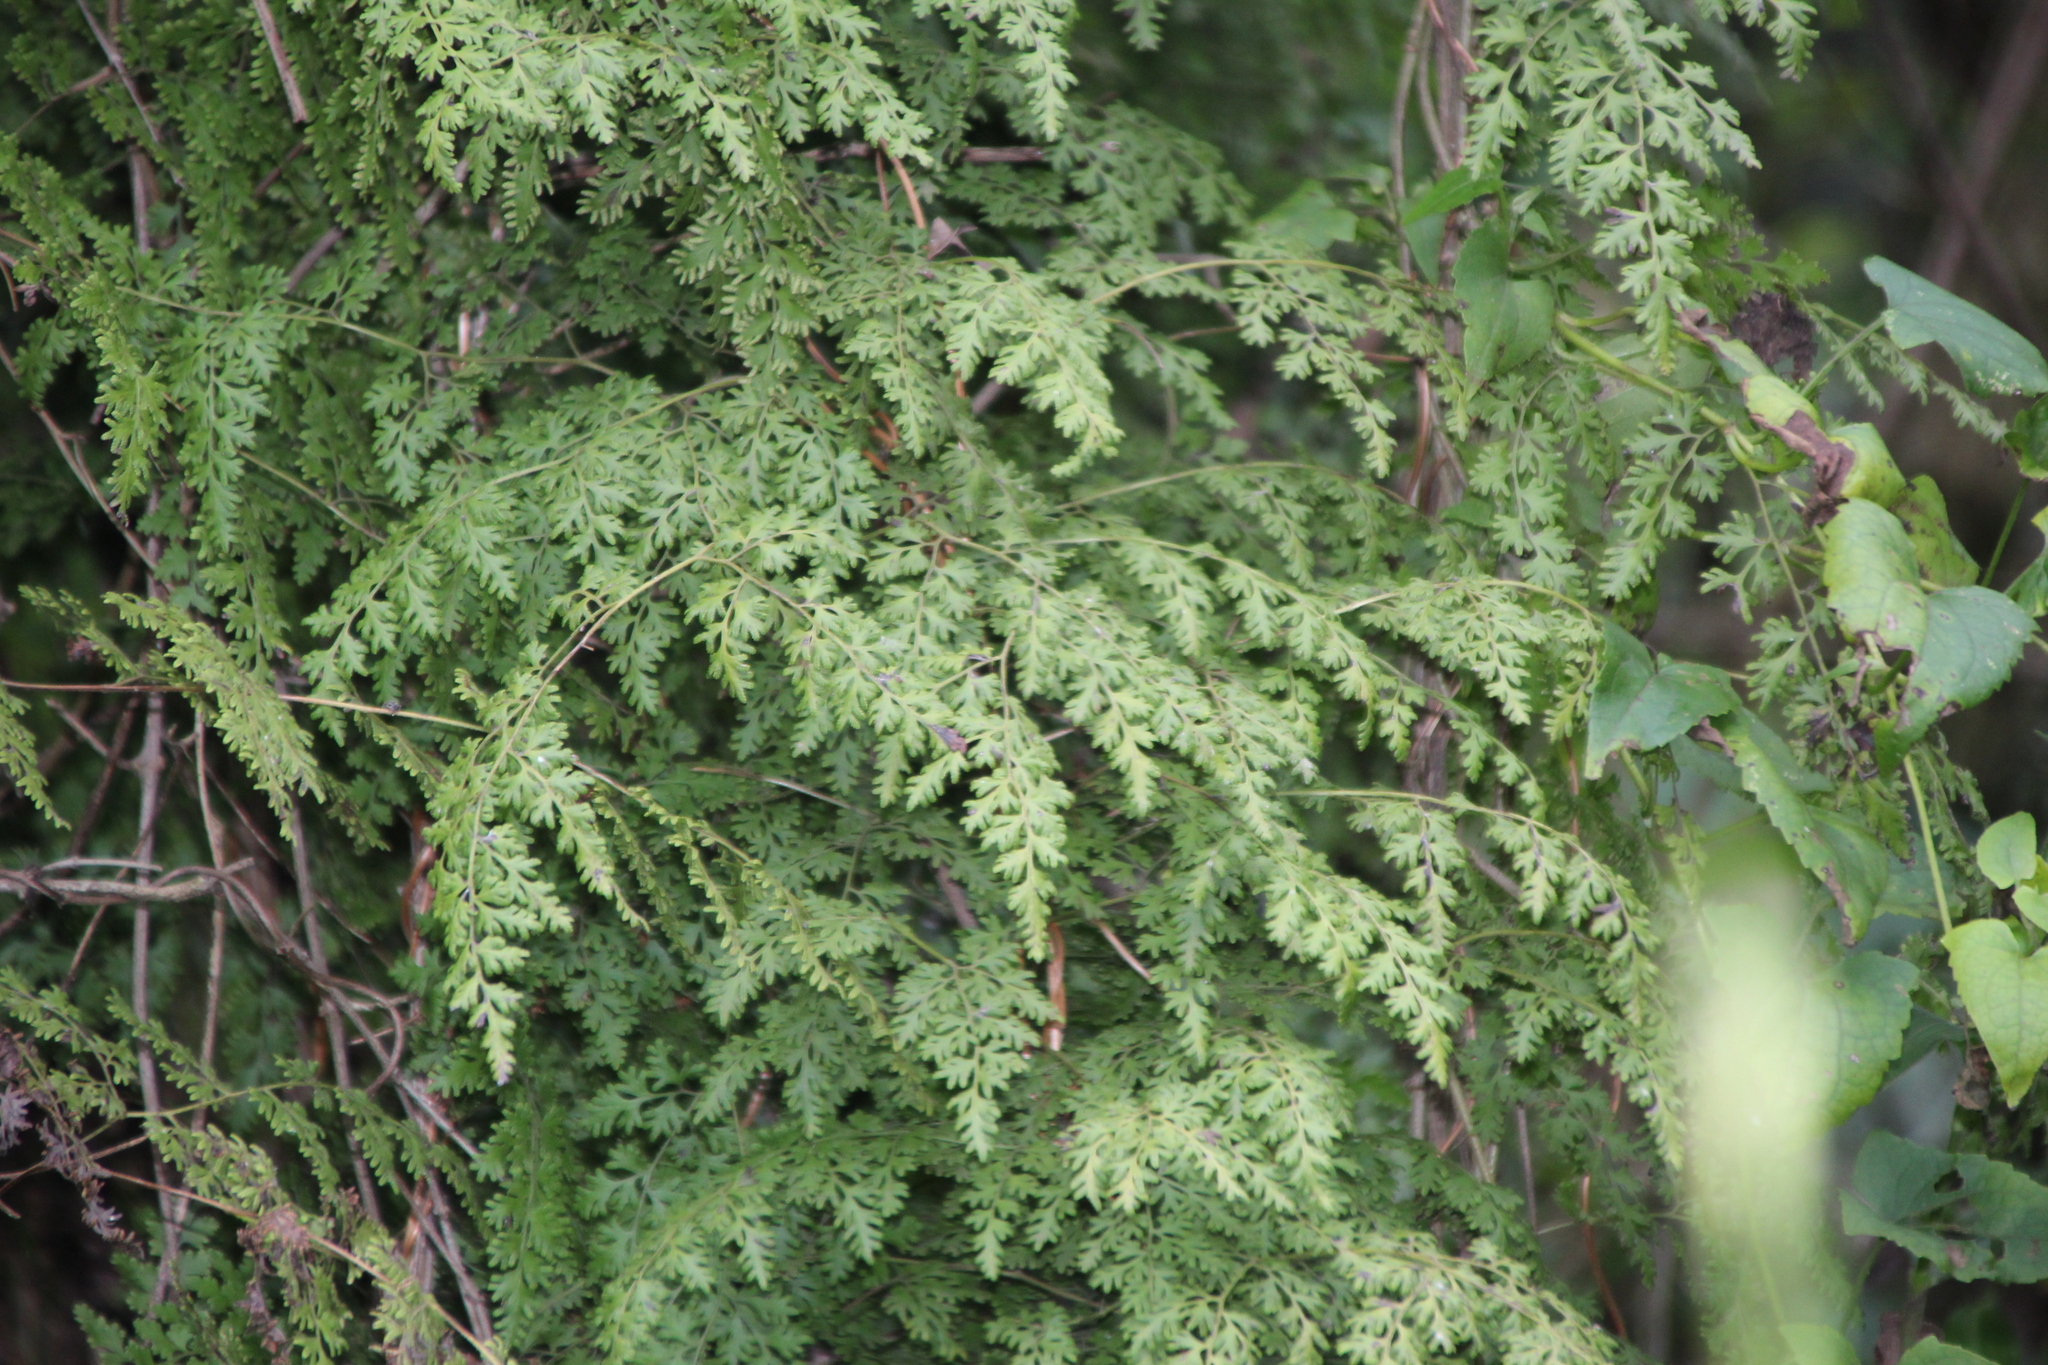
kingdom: Plantae
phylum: Tracheophyta
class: Polypodiopsida
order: Schizaeales
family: Lygodiaceae
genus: Lygodium
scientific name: Lygodium japonicum
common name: Japanese climbing fern
